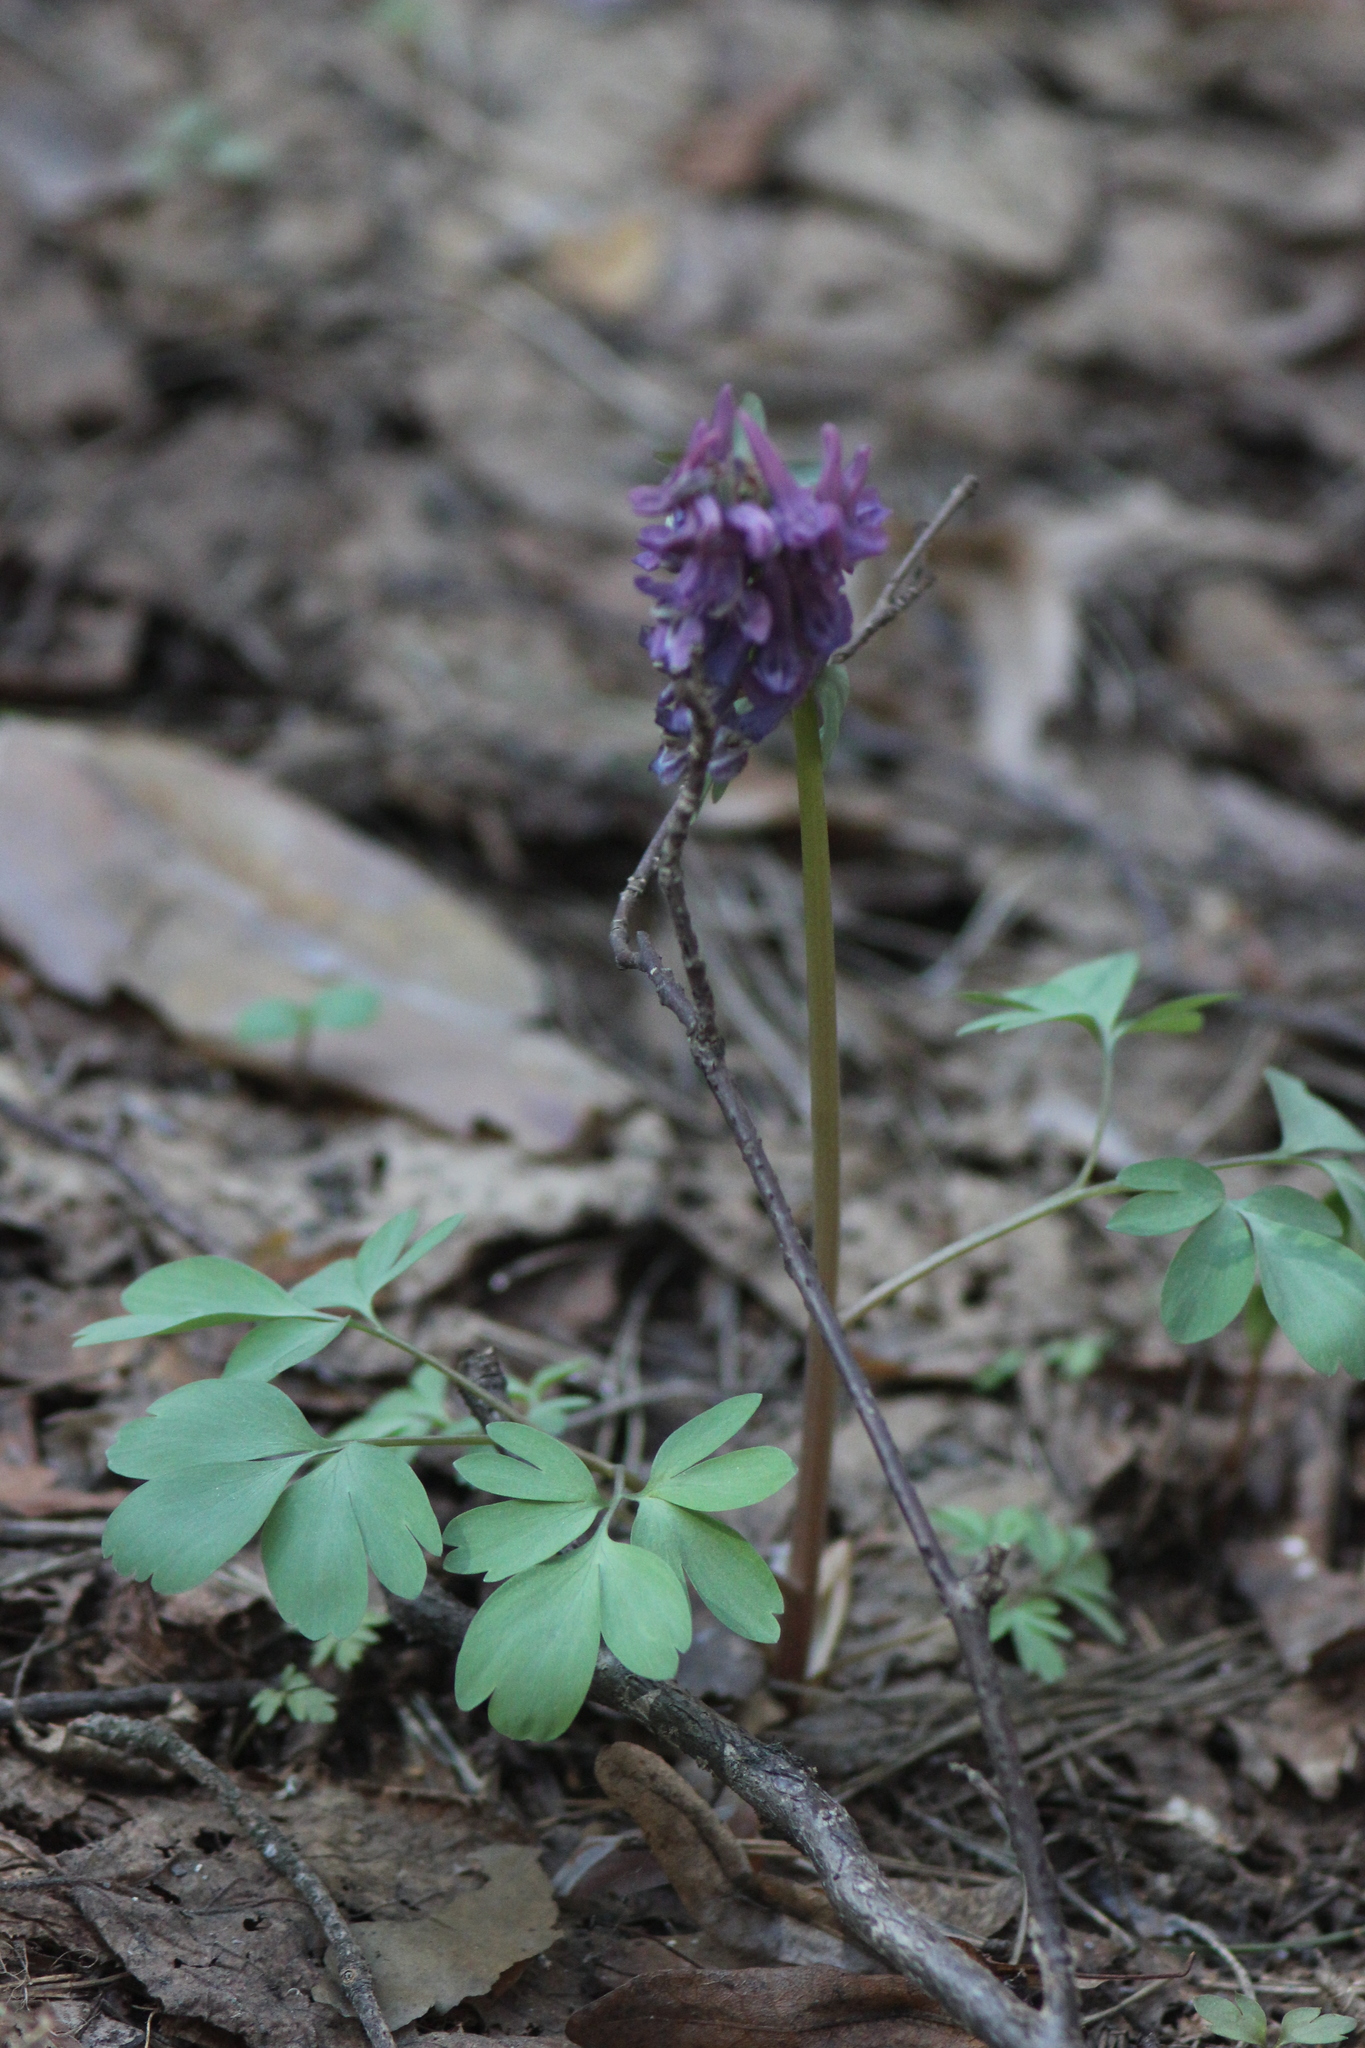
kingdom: Plantae
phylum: Tracheophyta
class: Magnoliopsida
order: Ranunculales
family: Papaveraceae
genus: Corydalis
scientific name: Corydalis solida
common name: Bird-in-a-bush
